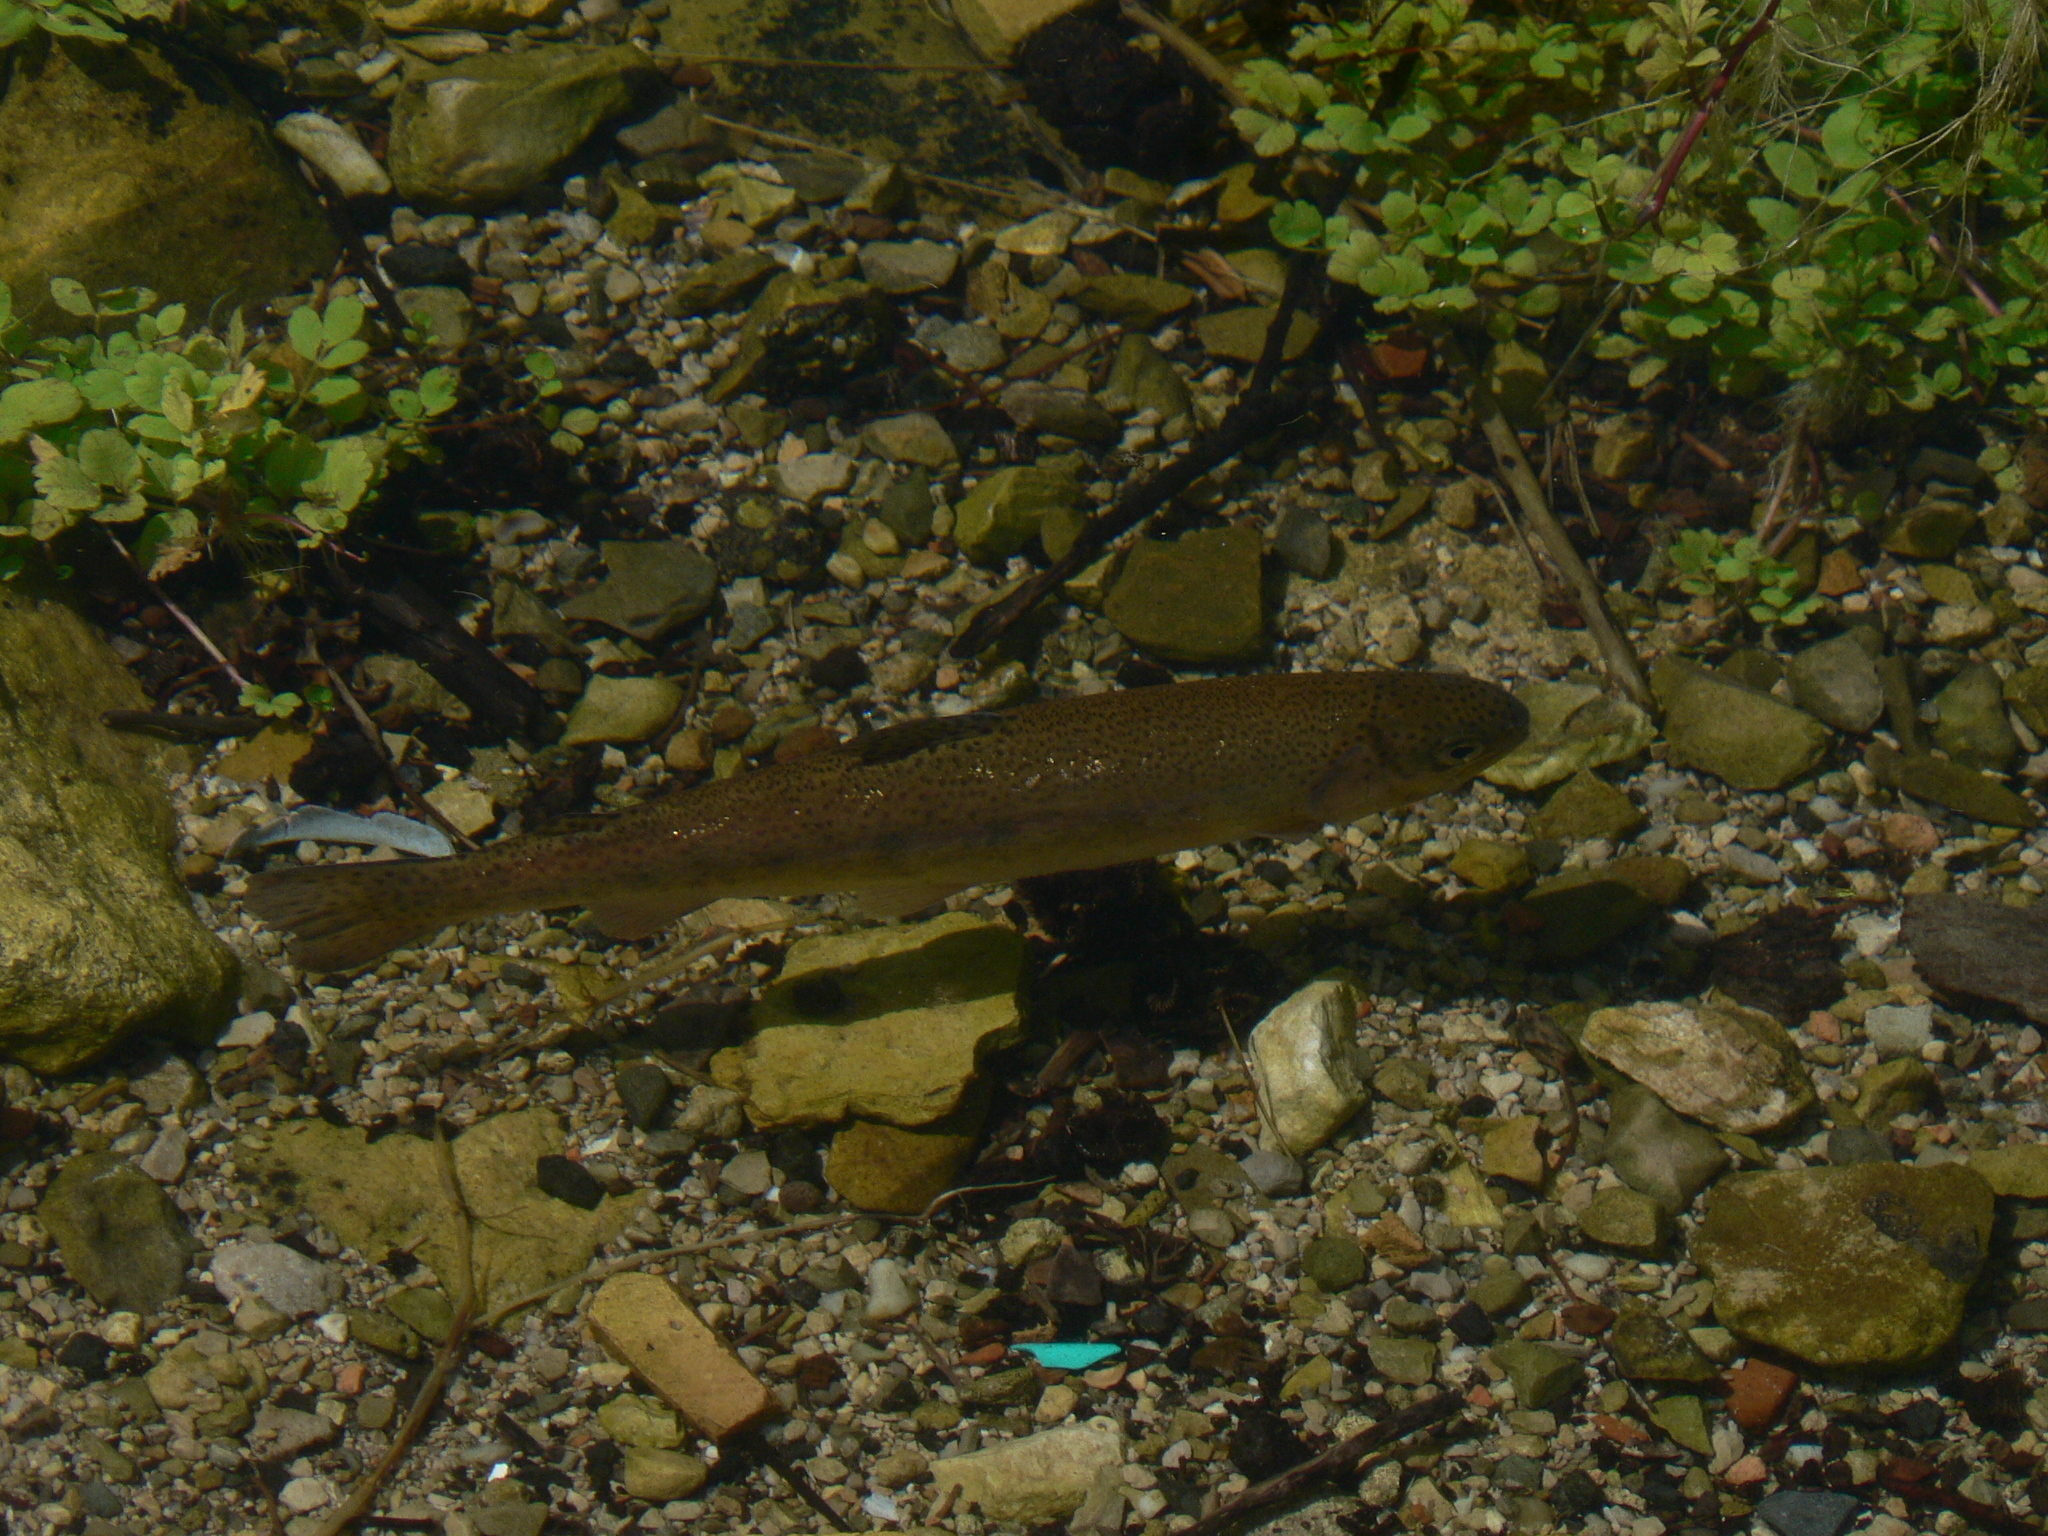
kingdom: Animalia
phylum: Chordata
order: Salmoniformes
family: Salmonidae
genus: Oncorhynchus
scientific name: Oncorhynchus mykiss
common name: Rainbow trout
